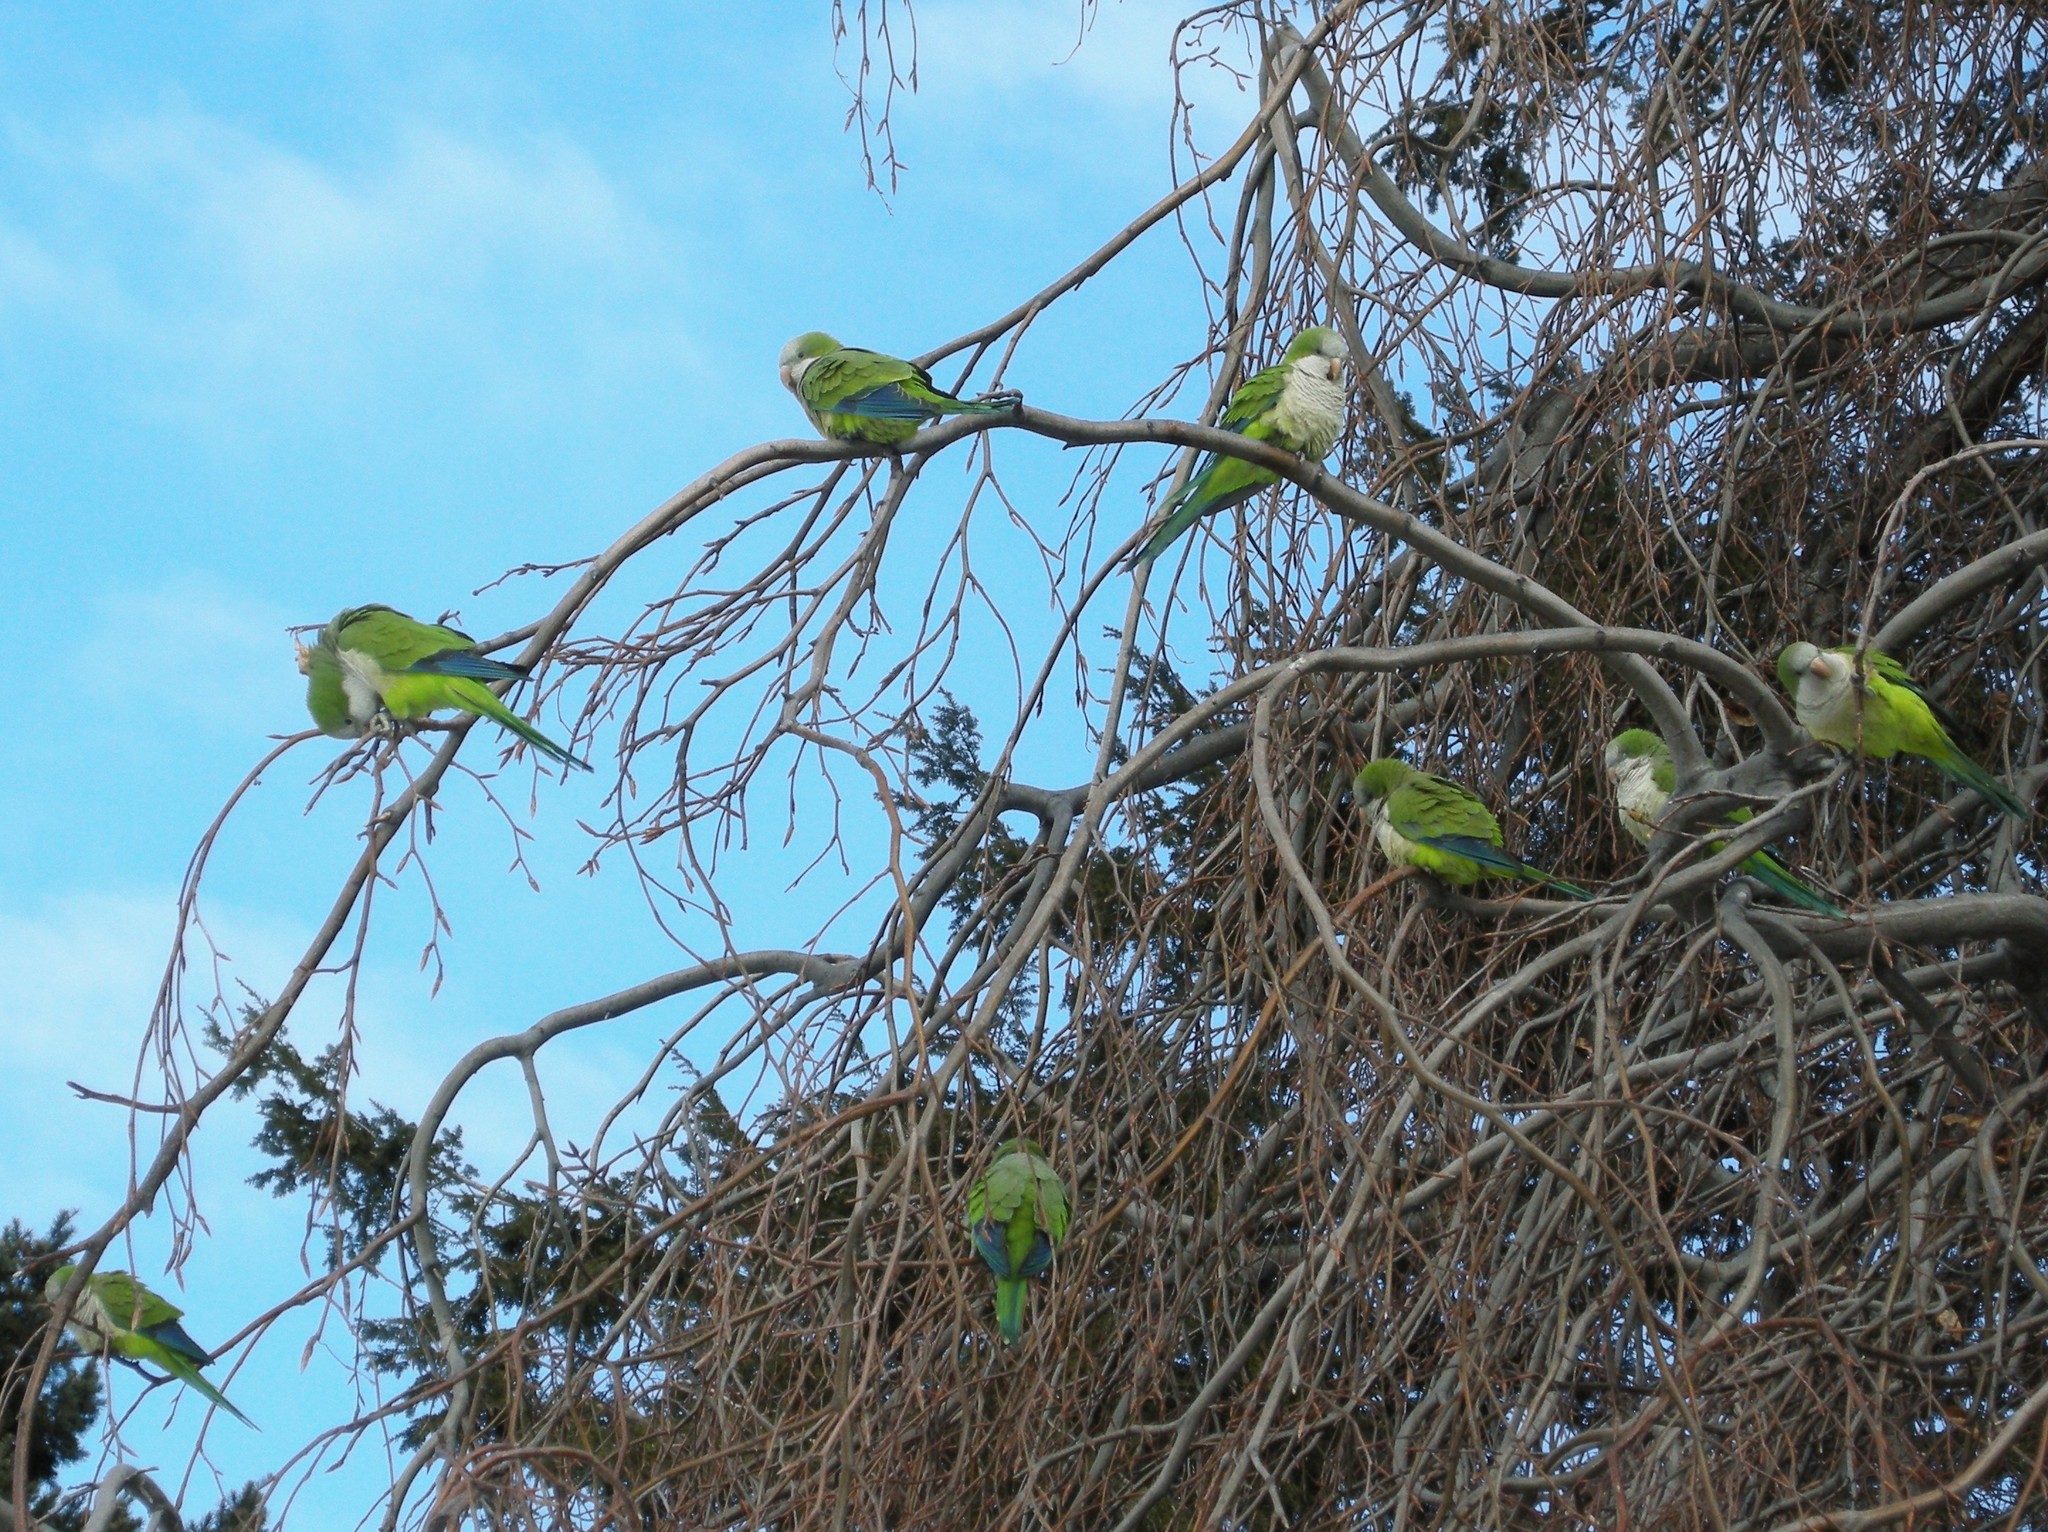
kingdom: Animalia
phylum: Chordata
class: Aves
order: Psittaciformes
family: Psittacidae
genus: Myiopsitta
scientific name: Myiopsitta monachus
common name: Monk parakeet
